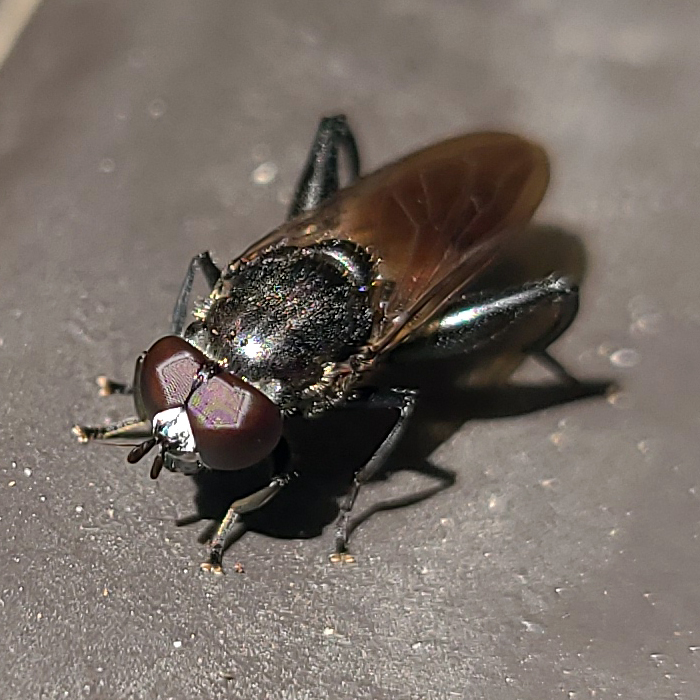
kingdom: Animalia
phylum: Arthropoda
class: Insecta
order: Diptera
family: Syrphidae
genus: Chalcosyrphus
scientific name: Chalcosyrphus piger
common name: Short-haired leafwalker
